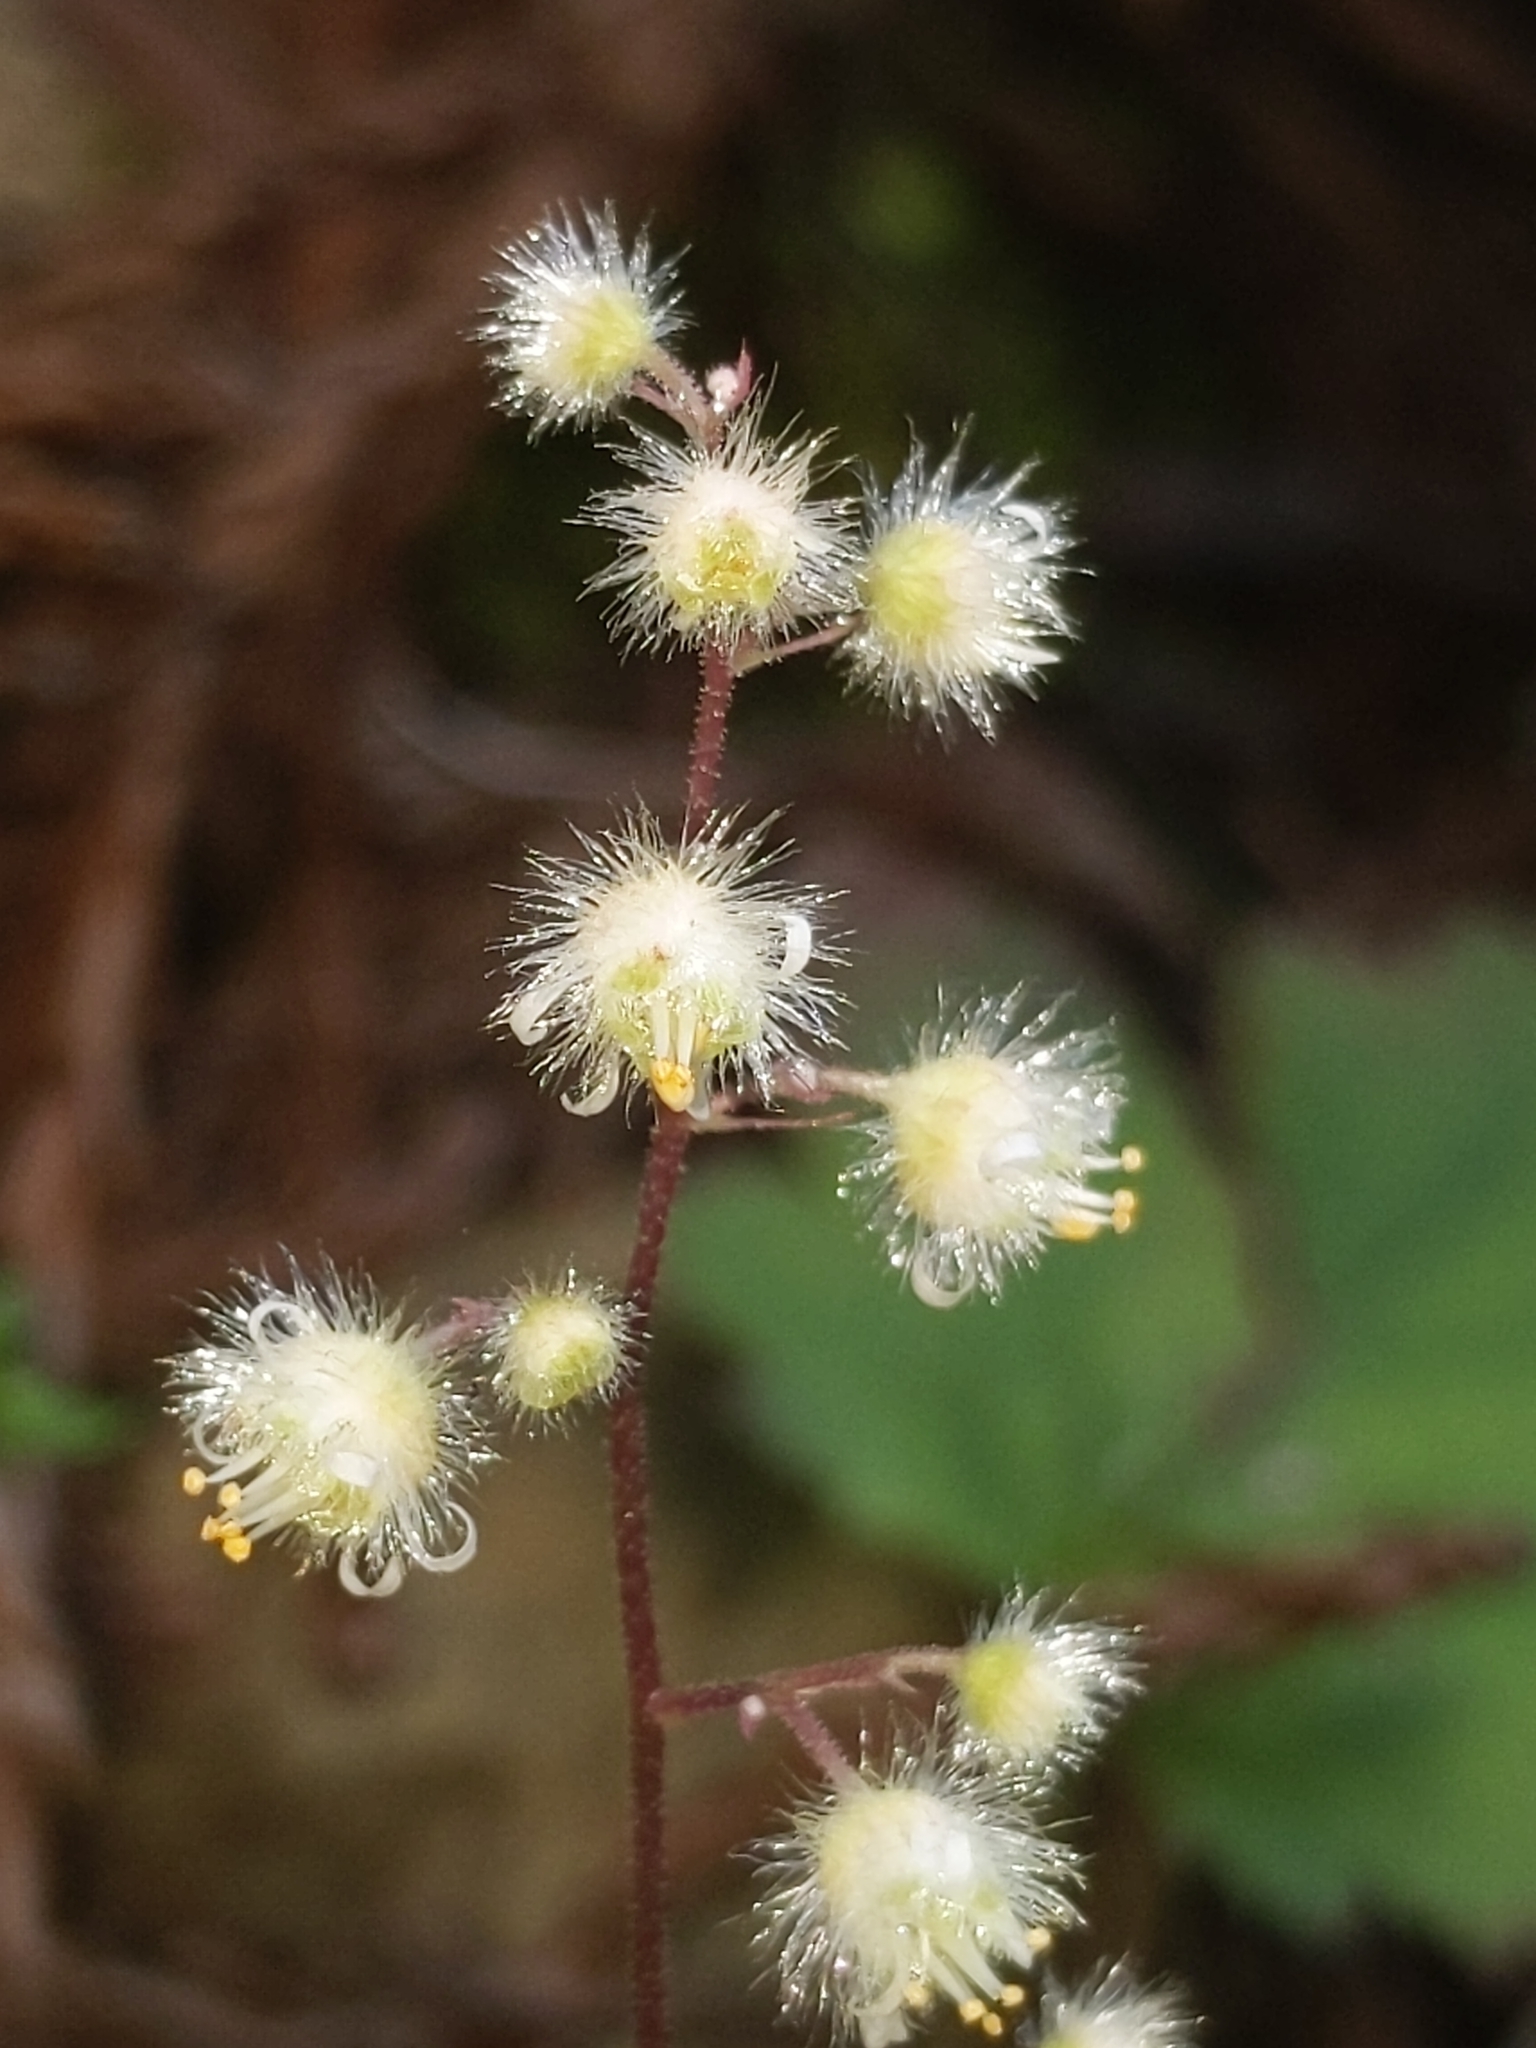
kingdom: Plantae
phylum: Tracheophyta
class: Magnoliopsida
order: Saxifragales
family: Saxifragaceae
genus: Heuchera
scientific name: Heuchera pilosissima
